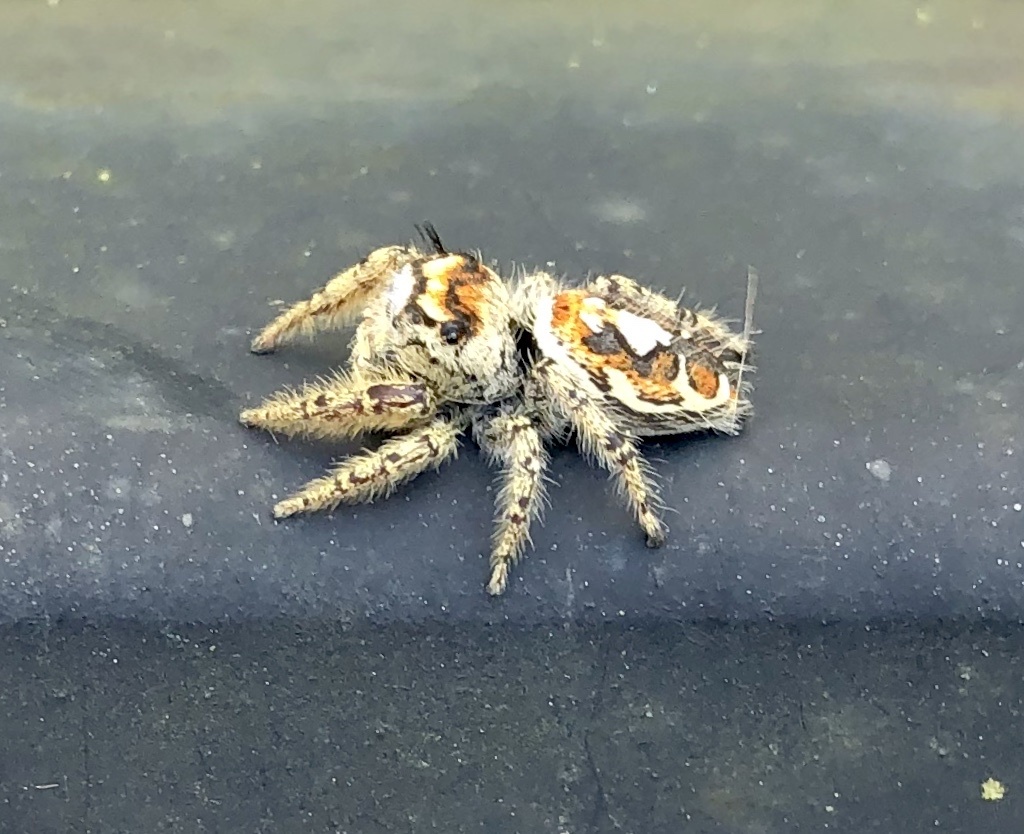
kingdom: Animalia
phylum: Arthropoda
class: Arachnida
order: Araneae
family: Salticidae
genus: Phidippus
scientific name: Phidippus arizonensis
